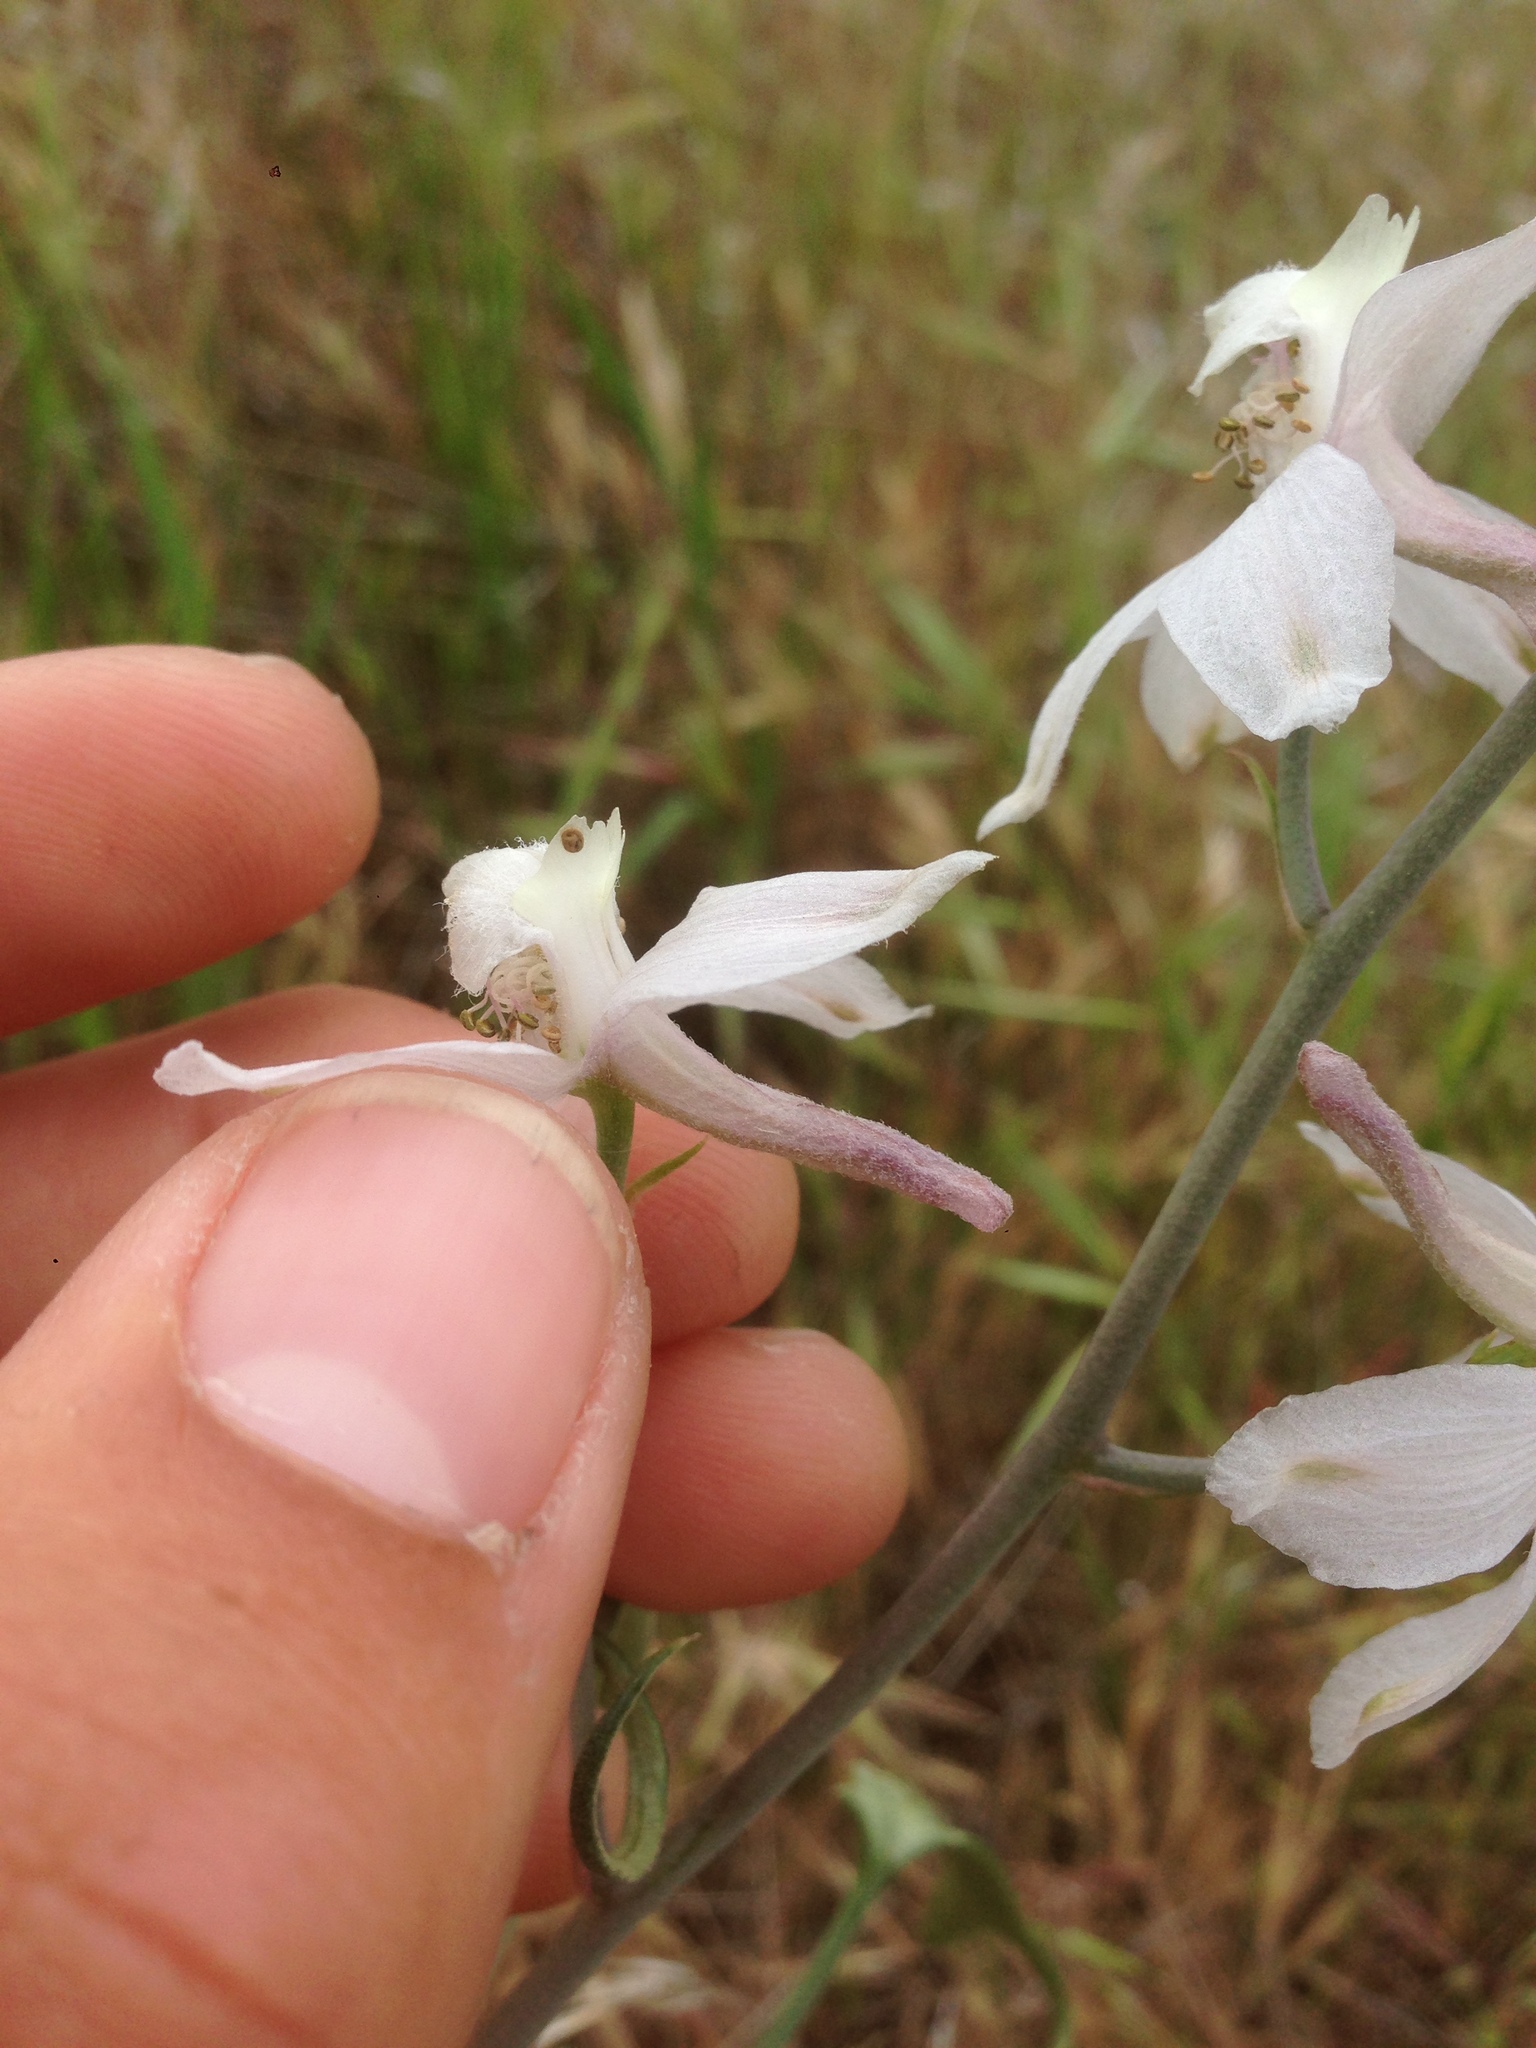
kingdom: Plantae
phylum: Tracheophyta
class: Magnoliopsida
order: Ranunculales
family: Ranunculaceae
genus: Delphinium
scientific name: Delphinium gypsophilum
